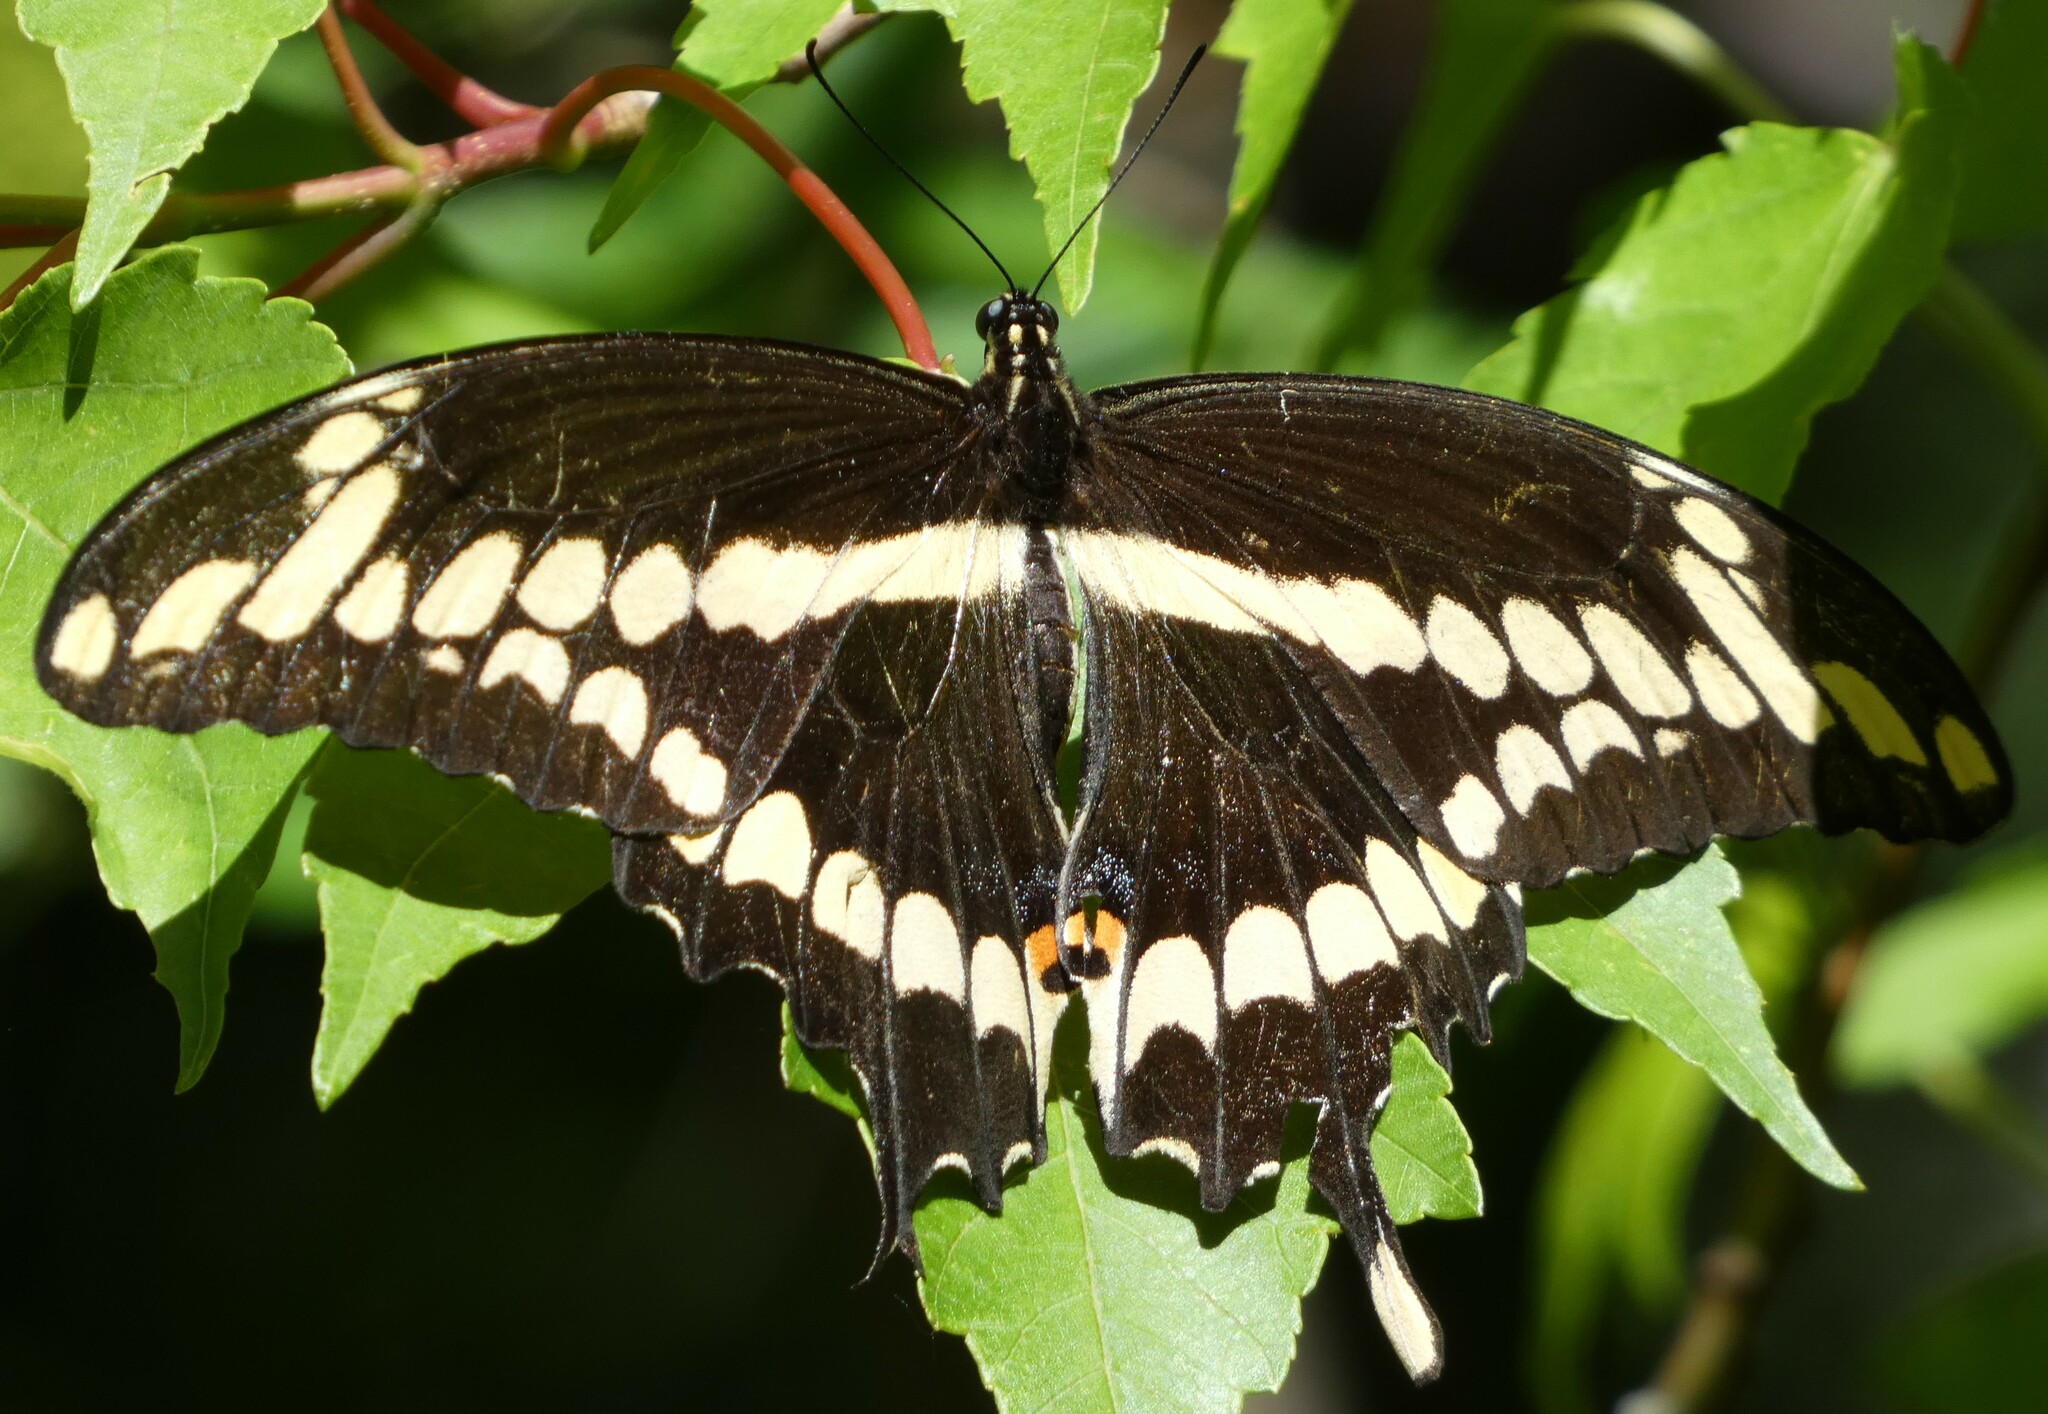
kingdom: Animalia
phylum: Arthropoda
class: Insecta
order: Lepidoptera
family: Papilionidae
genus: Papilio
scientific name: Papilio cresphontes
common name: Giant swallowtail
